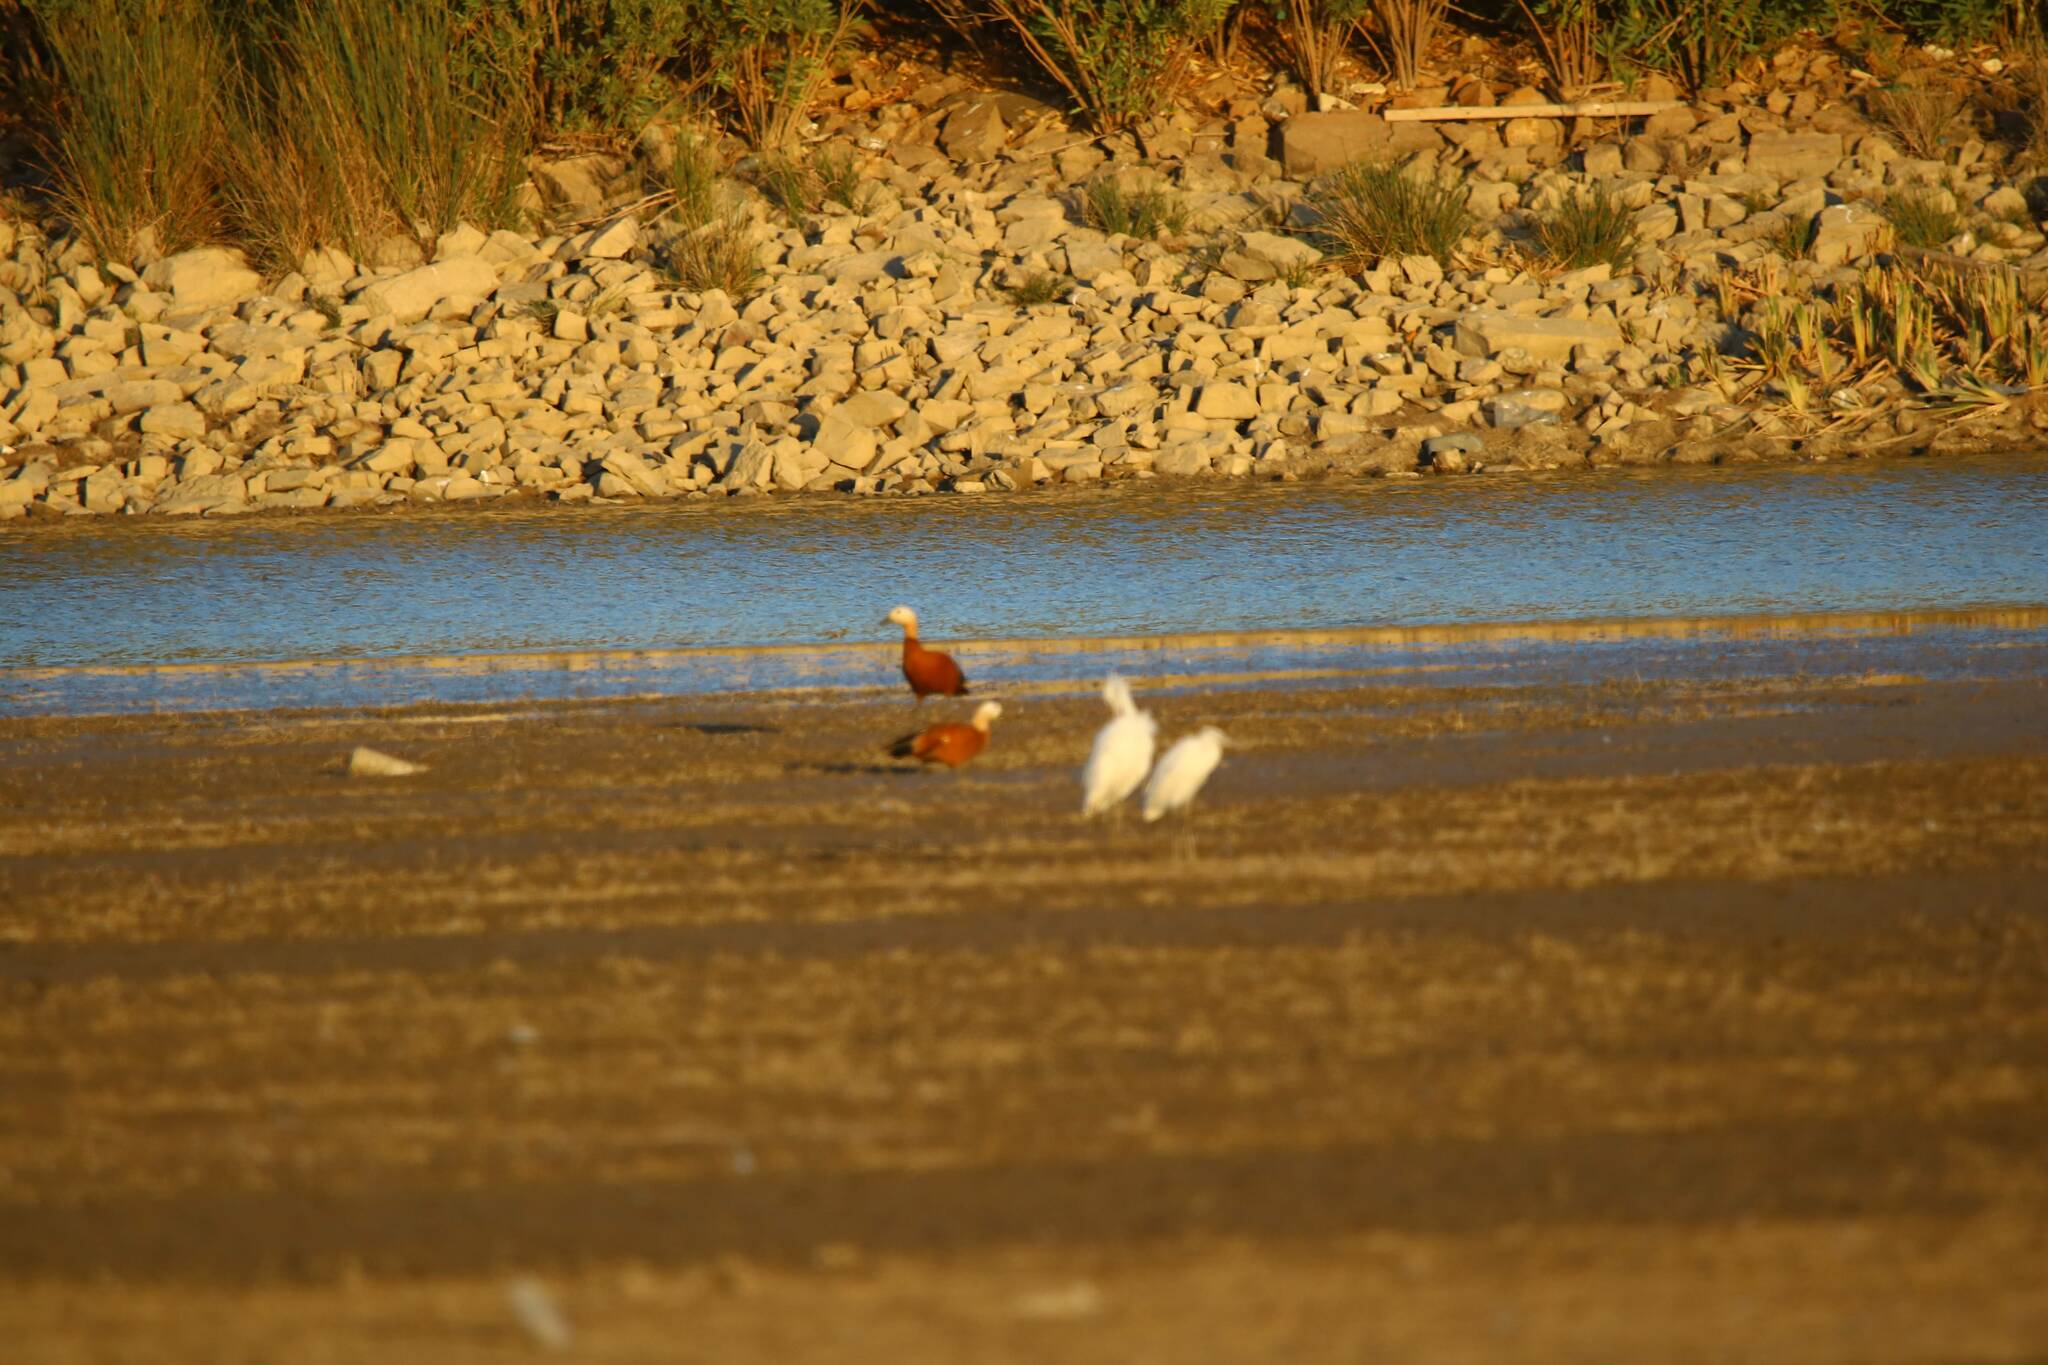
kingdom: Animalia
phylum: Chordata
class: Aves
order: Anseriformes
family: Anatidae
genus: Tadorna
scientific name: Tadorna ferruginea
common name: Ruddy shelduck
